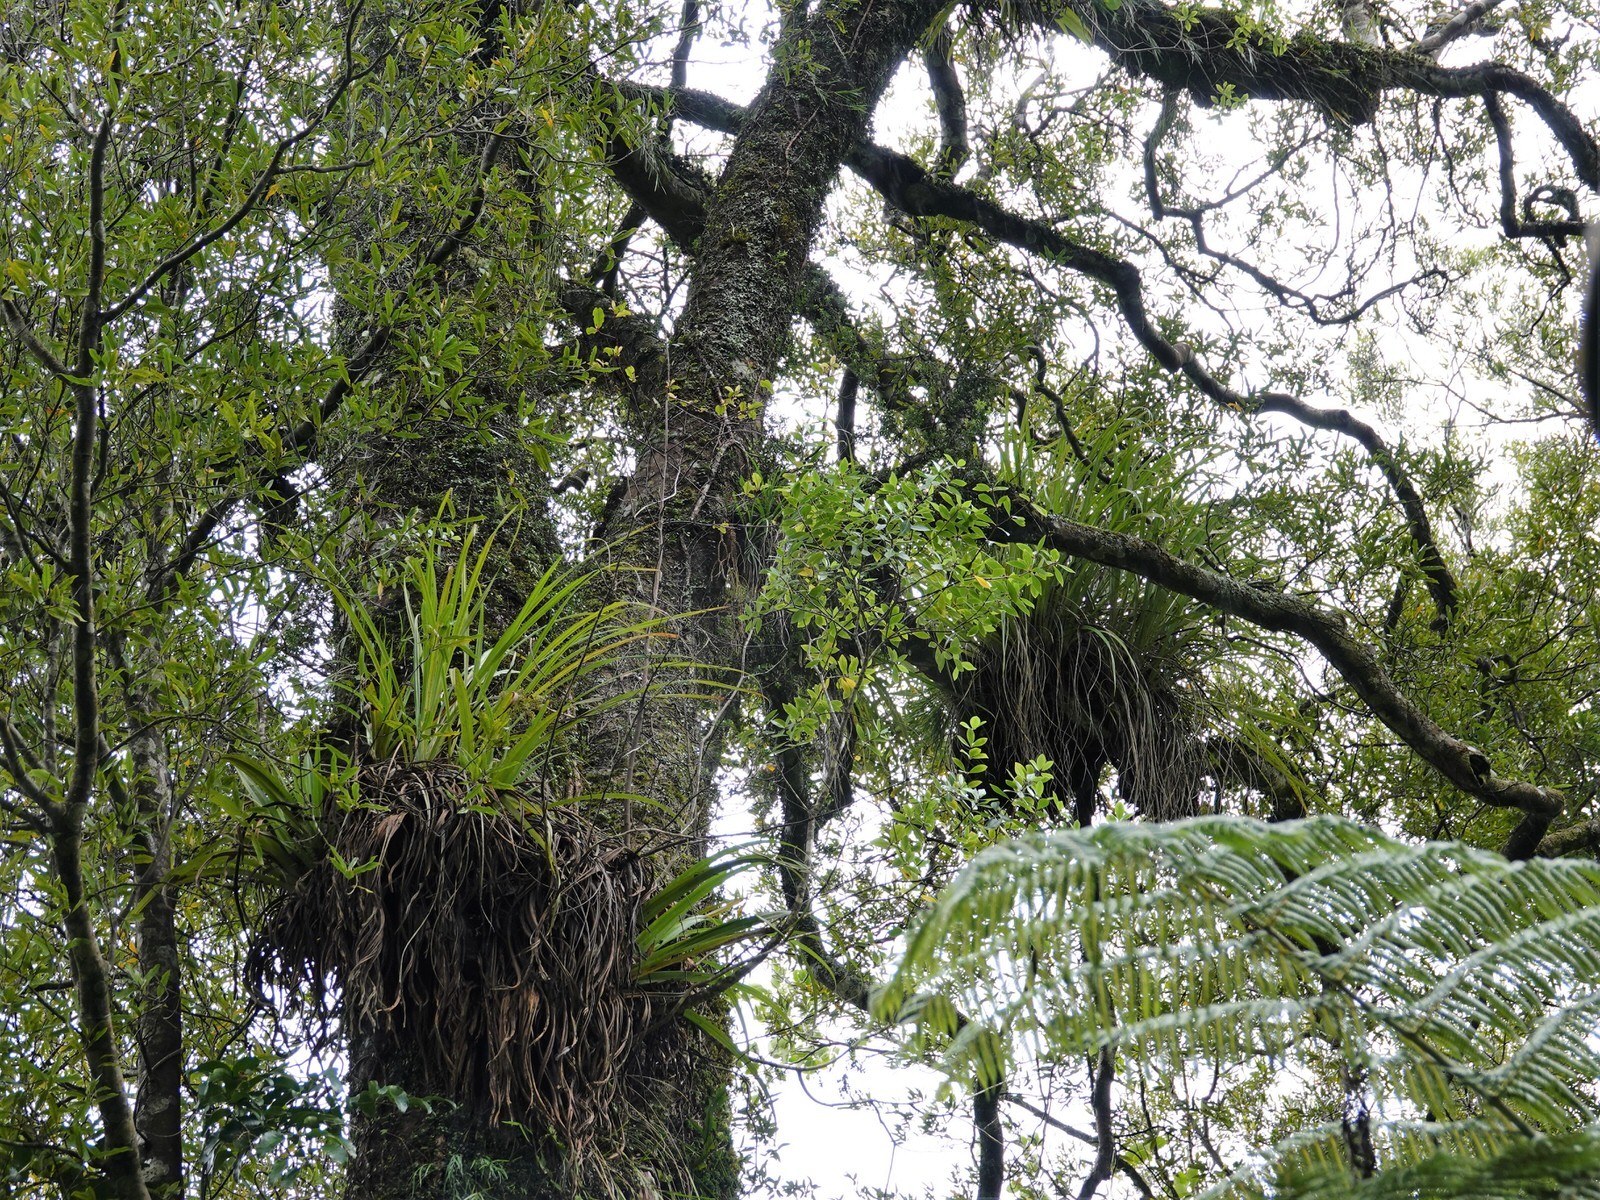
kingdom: Plantae
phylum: Tracheophyta
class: Magnoliopsida
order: Apiales
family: Pittosporaceae
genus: Pittosporum
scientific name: Pittosporum cornifolium
